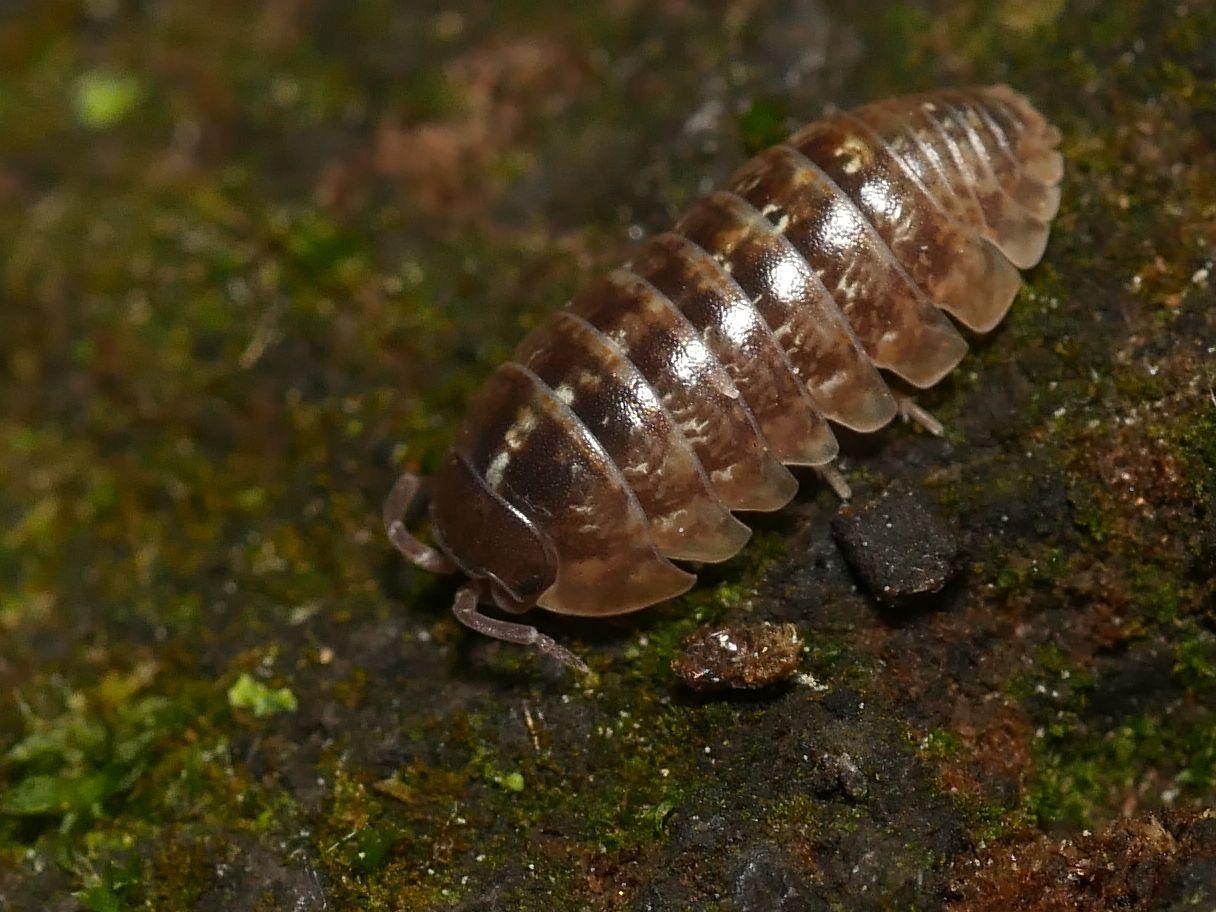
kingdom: Animalia
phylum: Arthropoda
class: Malacostraca
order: Isopoda
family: Armadillidiidae
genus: Armadillidium
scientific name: Armadillidium vulgare
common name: Common pill woodlouse
